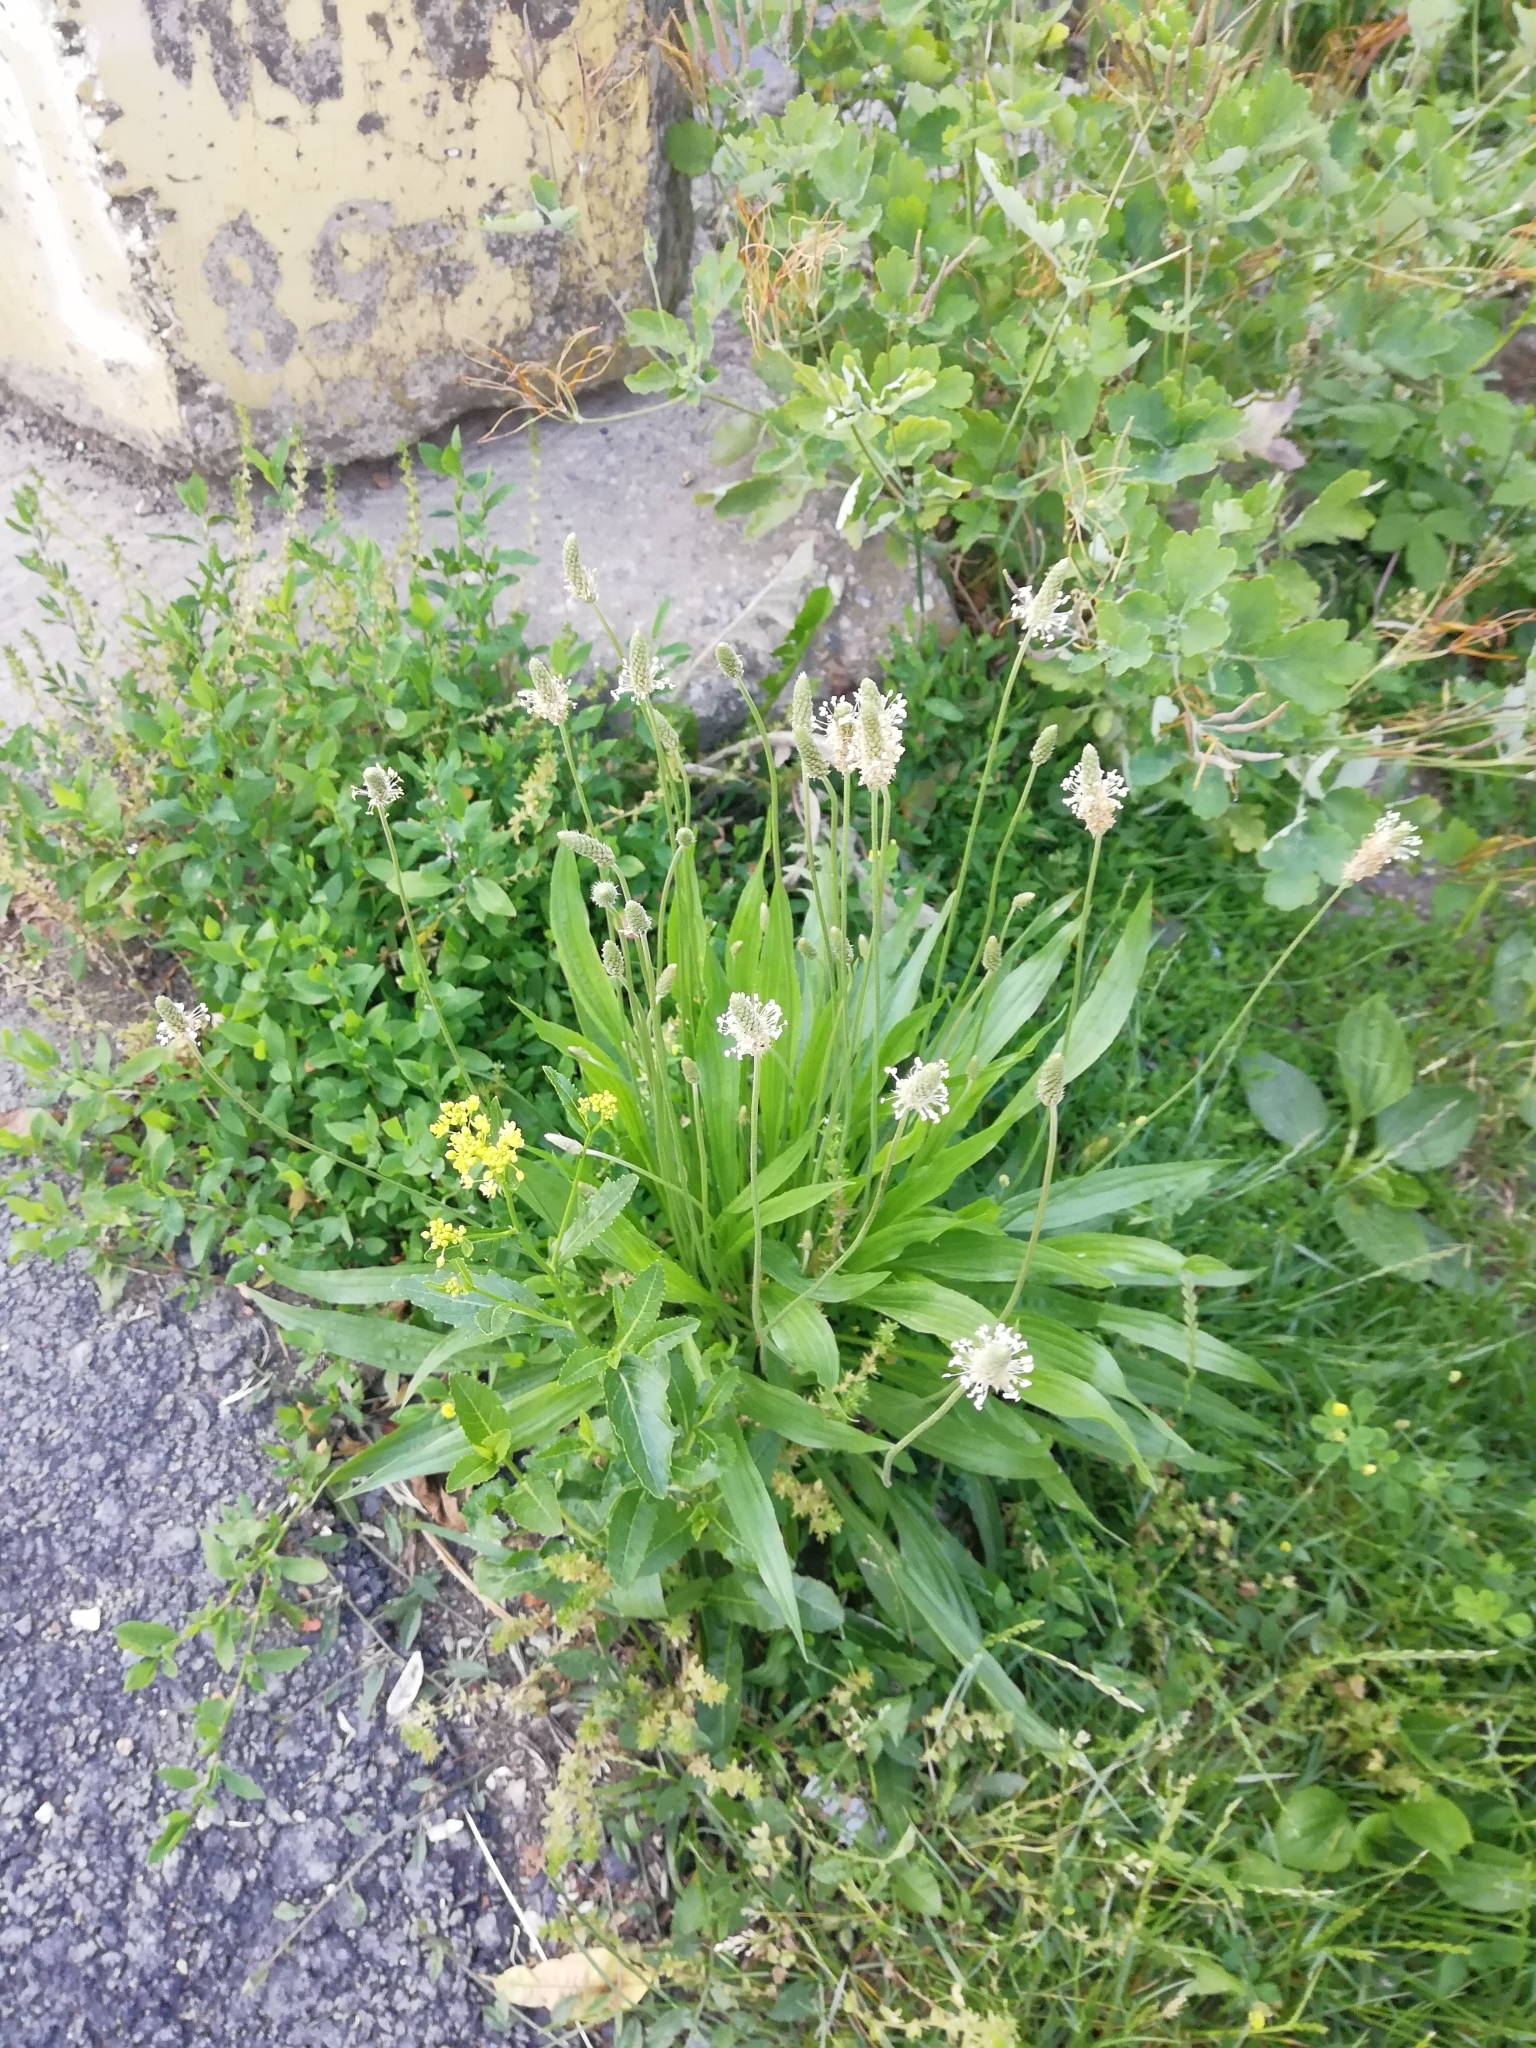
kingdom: Plantae
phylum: Tracheophyta
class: Magnoliopsida
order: Lamiales
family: Plantaginaceae
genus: Plantago
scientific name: Plantago lanceolata
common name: Ribwort plantain
